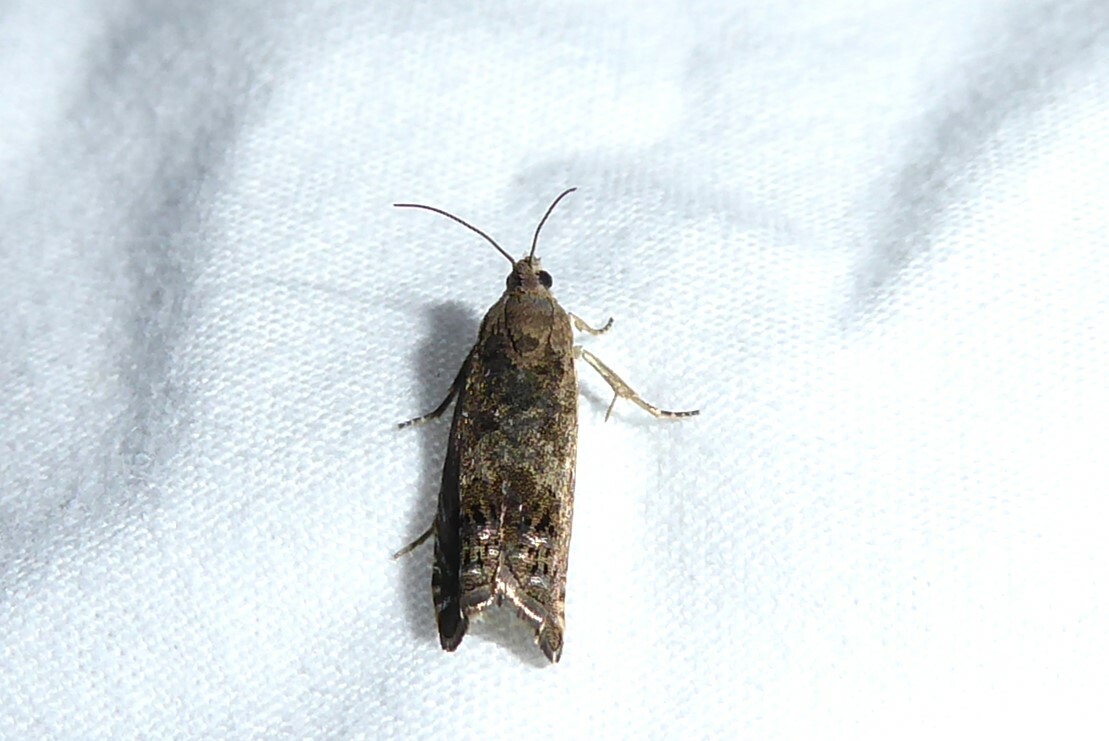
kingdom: Animalia
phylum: Arthropoda
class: Insecta
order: Lepidoptera
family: Tortricidae
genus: Cydia
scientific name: Cydia succedana
